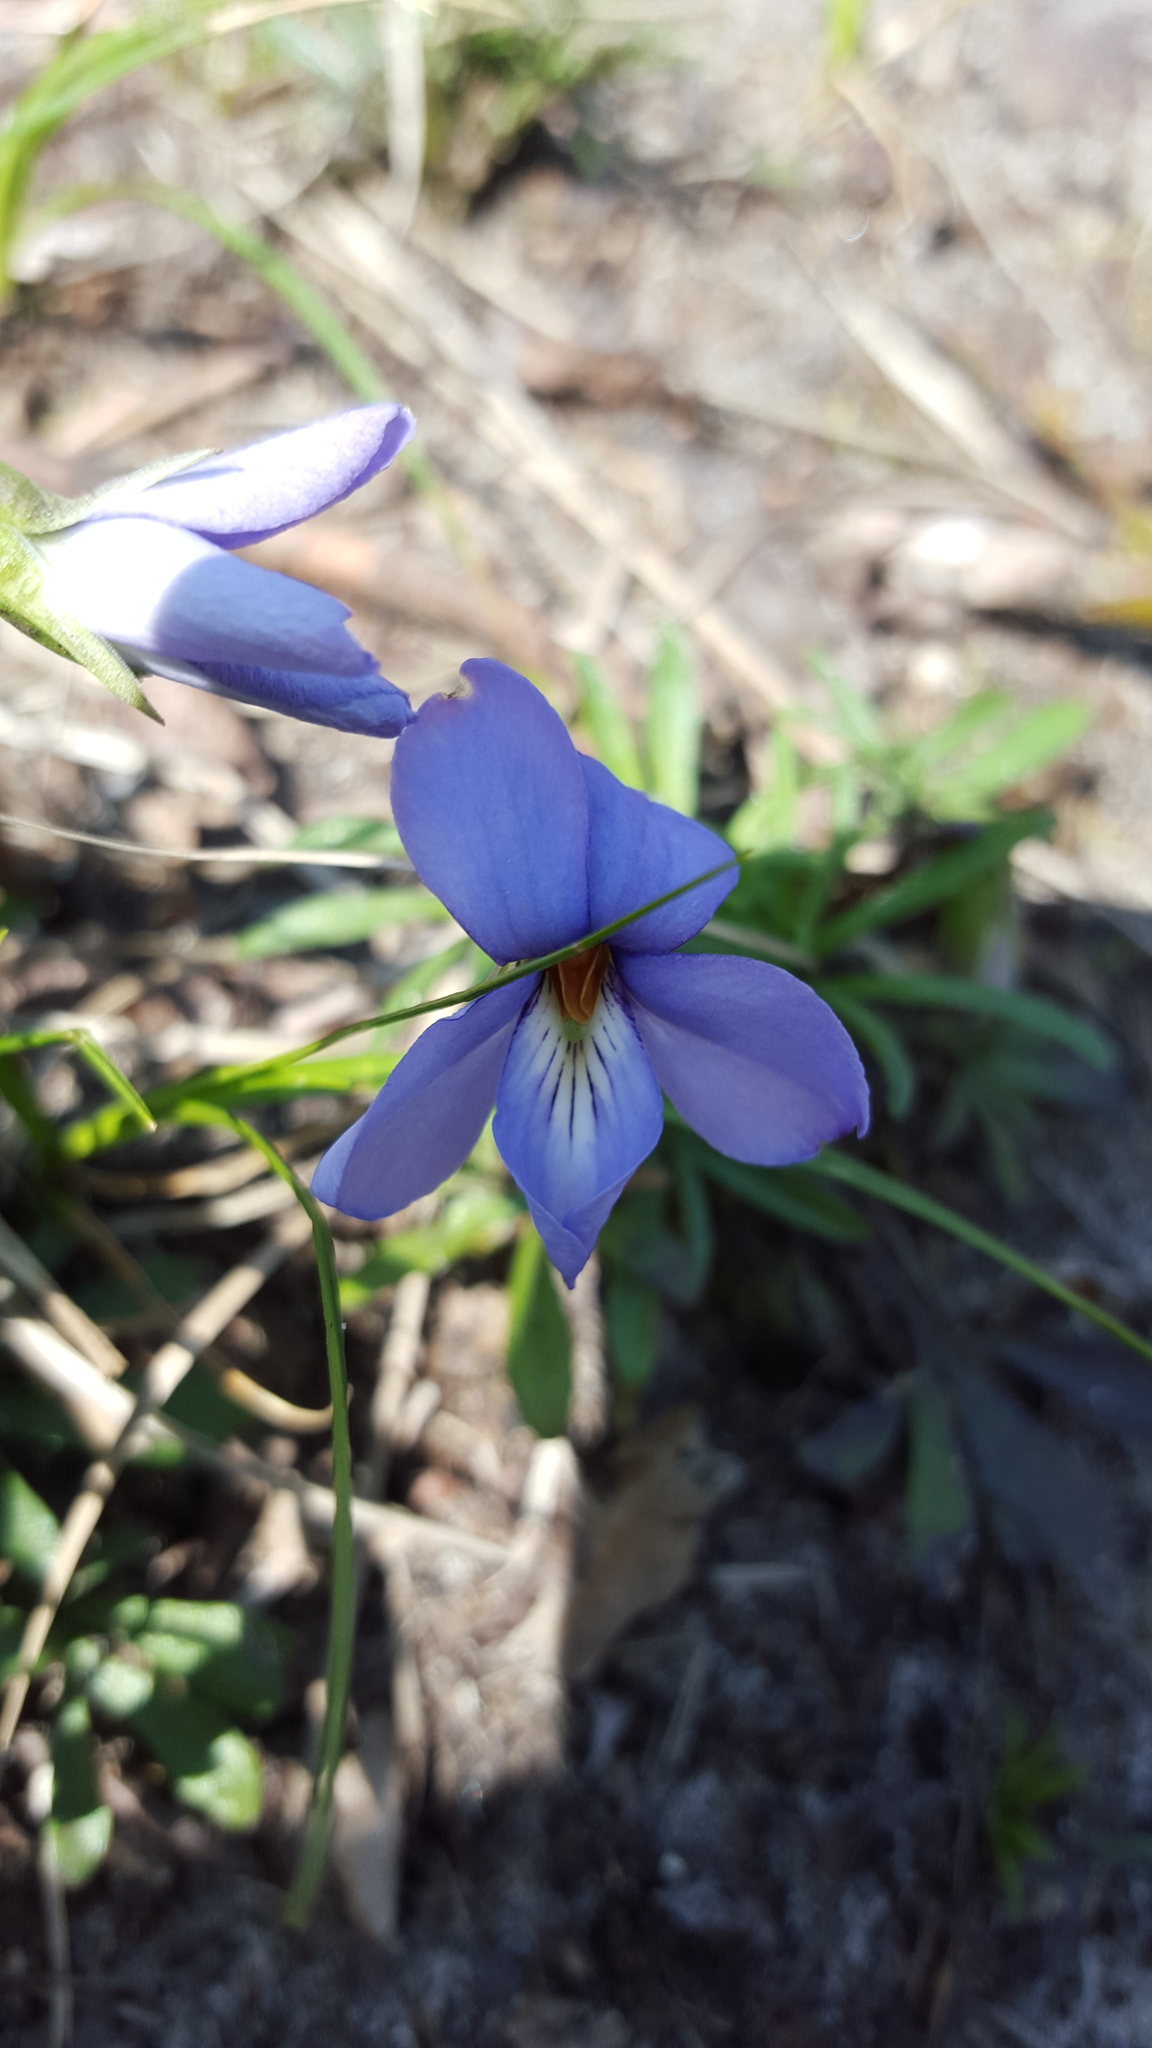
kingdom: Plantae
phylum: Tracheophyta
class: Magnoliopsida
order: Malpighiales
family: Violaceae
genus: Viola
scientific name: Viola pedata
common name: Pansy violet
